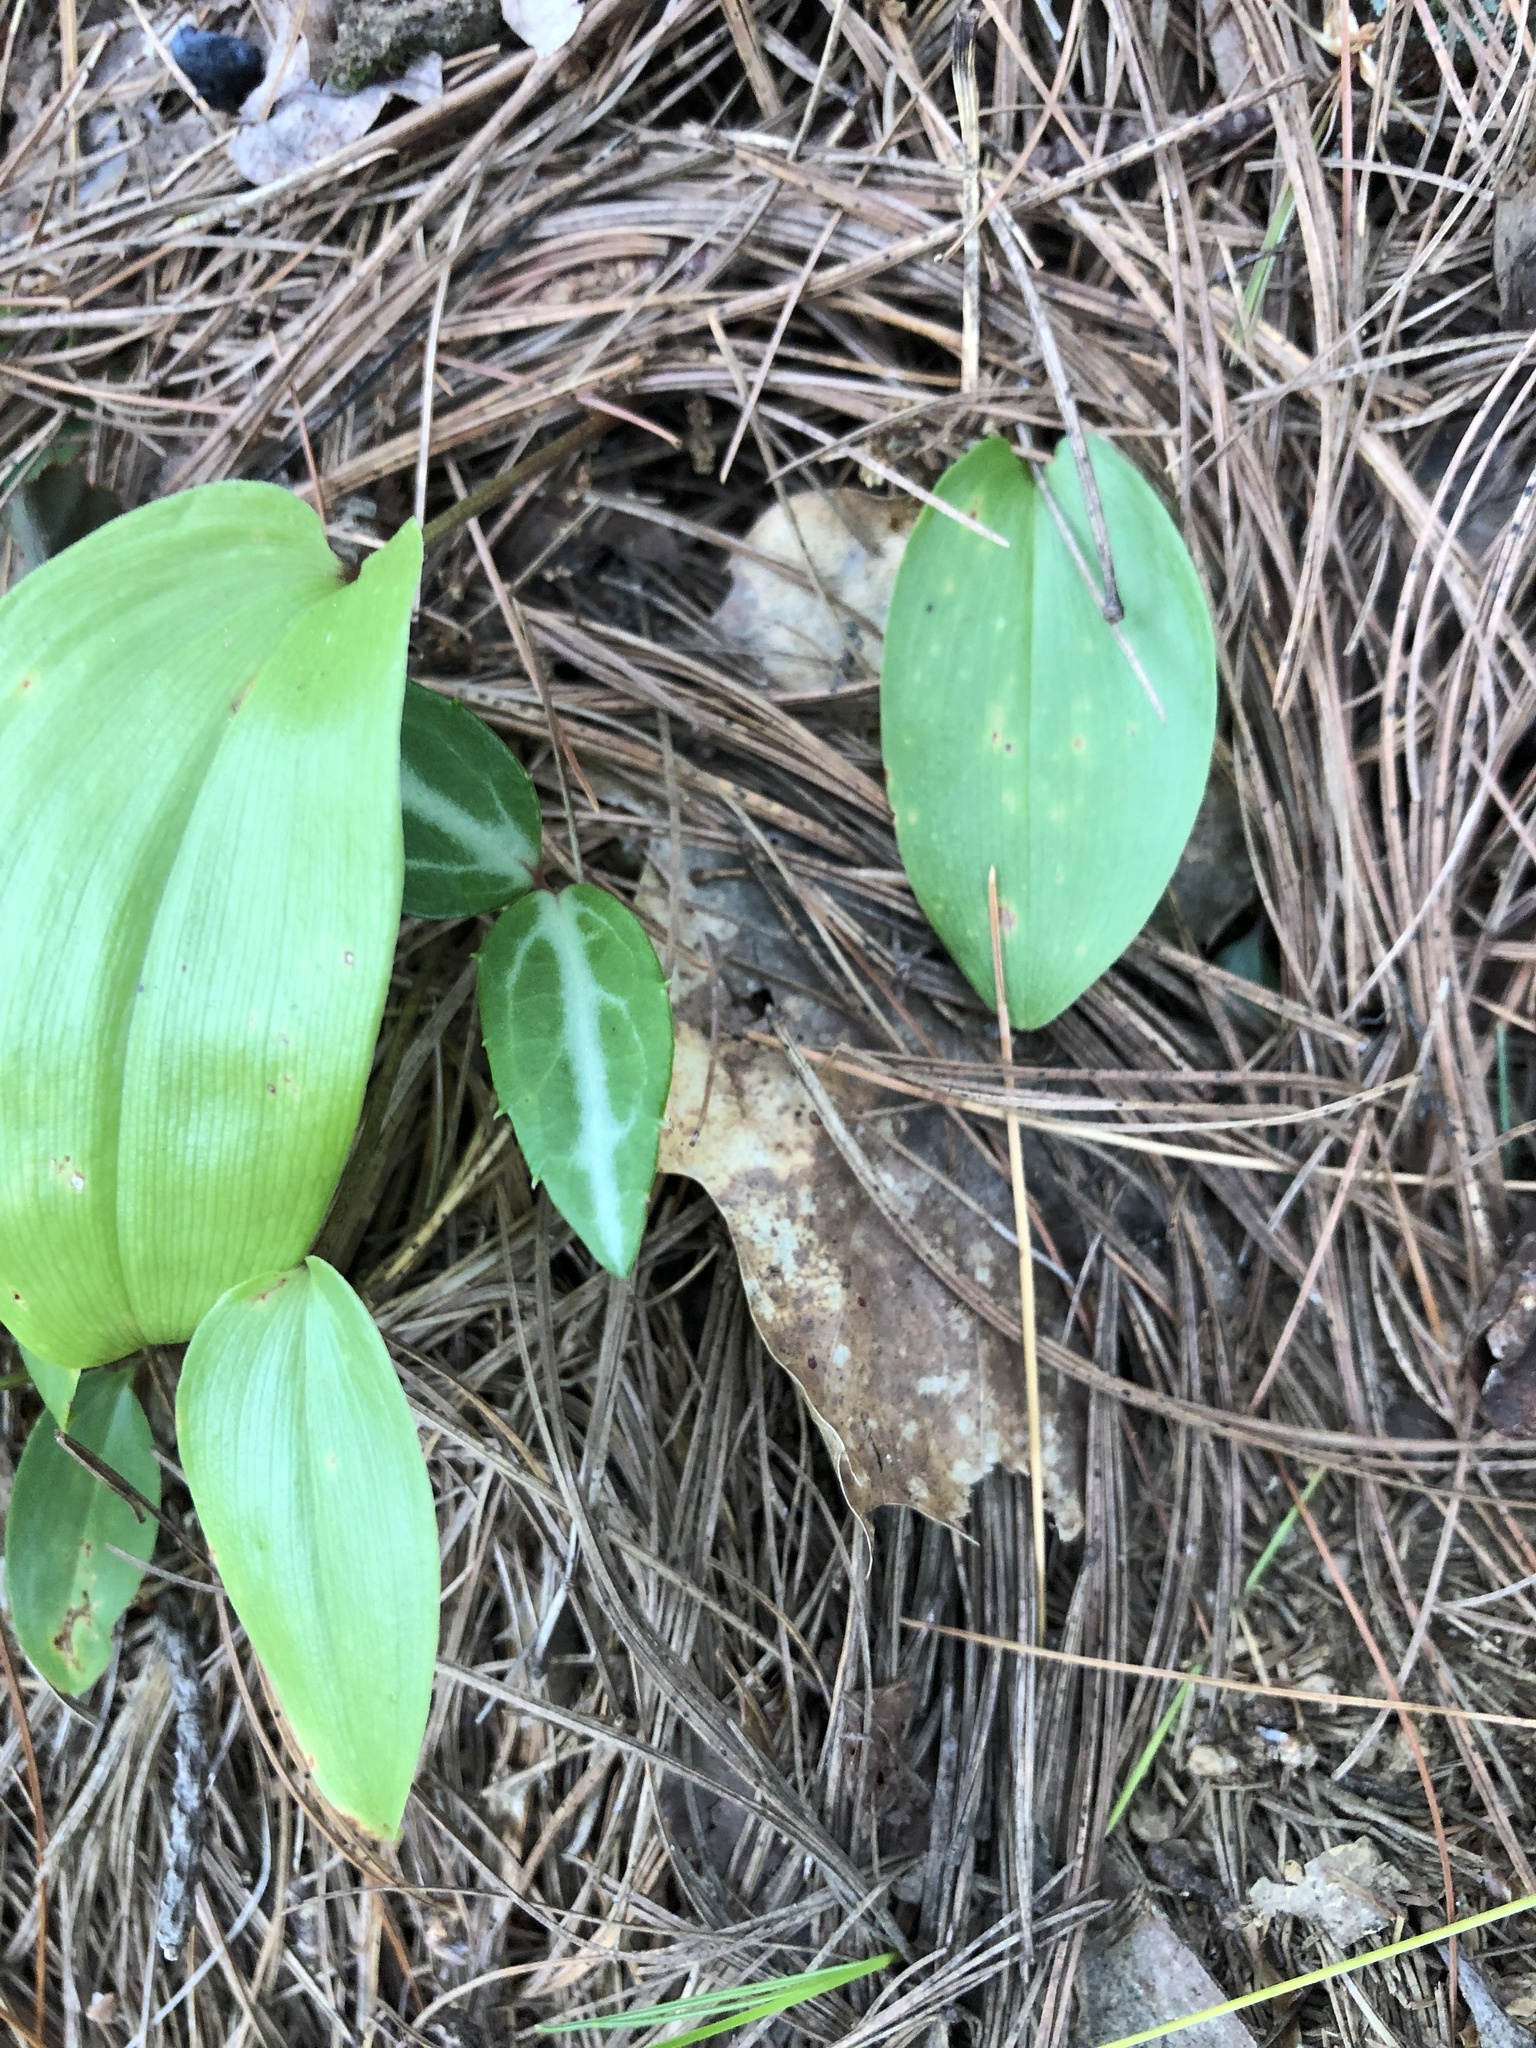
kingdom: Plantae
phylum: Tracheophyta
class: Magnoliopsida
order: Ericales
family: Ericaceae
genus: Chimaphila
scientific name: Chimaphila maculata
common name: Spotted pipsissewa
